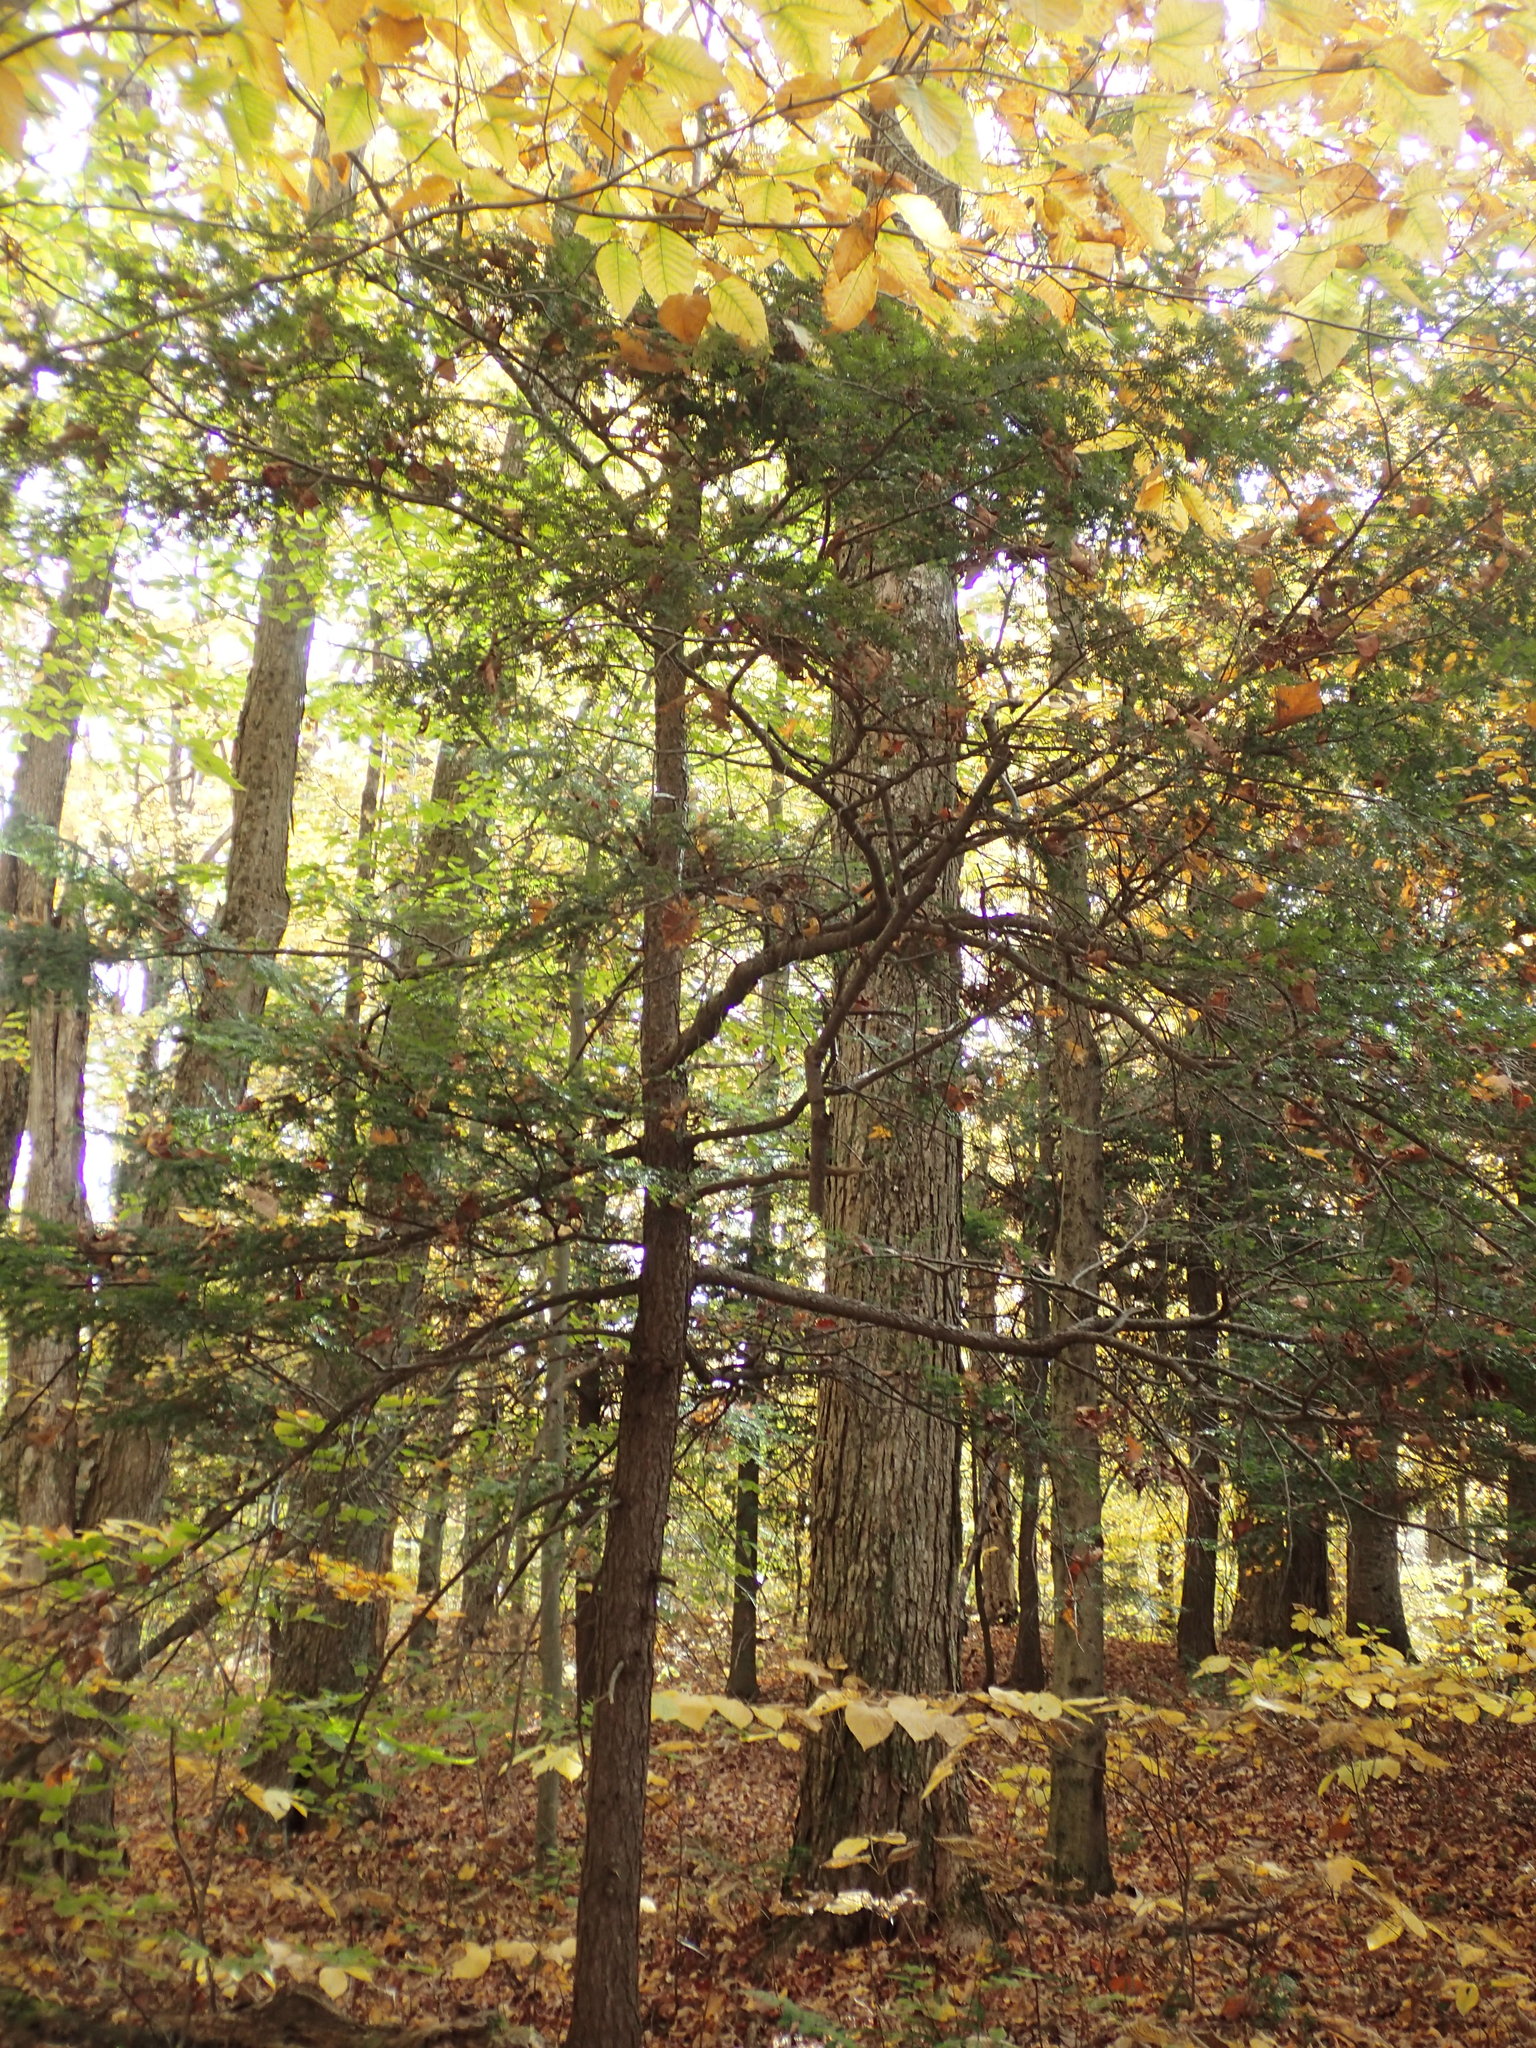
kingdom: Plantae
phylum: Tracheophyta
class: Pinopsida
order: Pinales
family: Pinaceae
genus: Tsuga
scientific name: Tsuga canadensis
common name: Eastern hemlock
